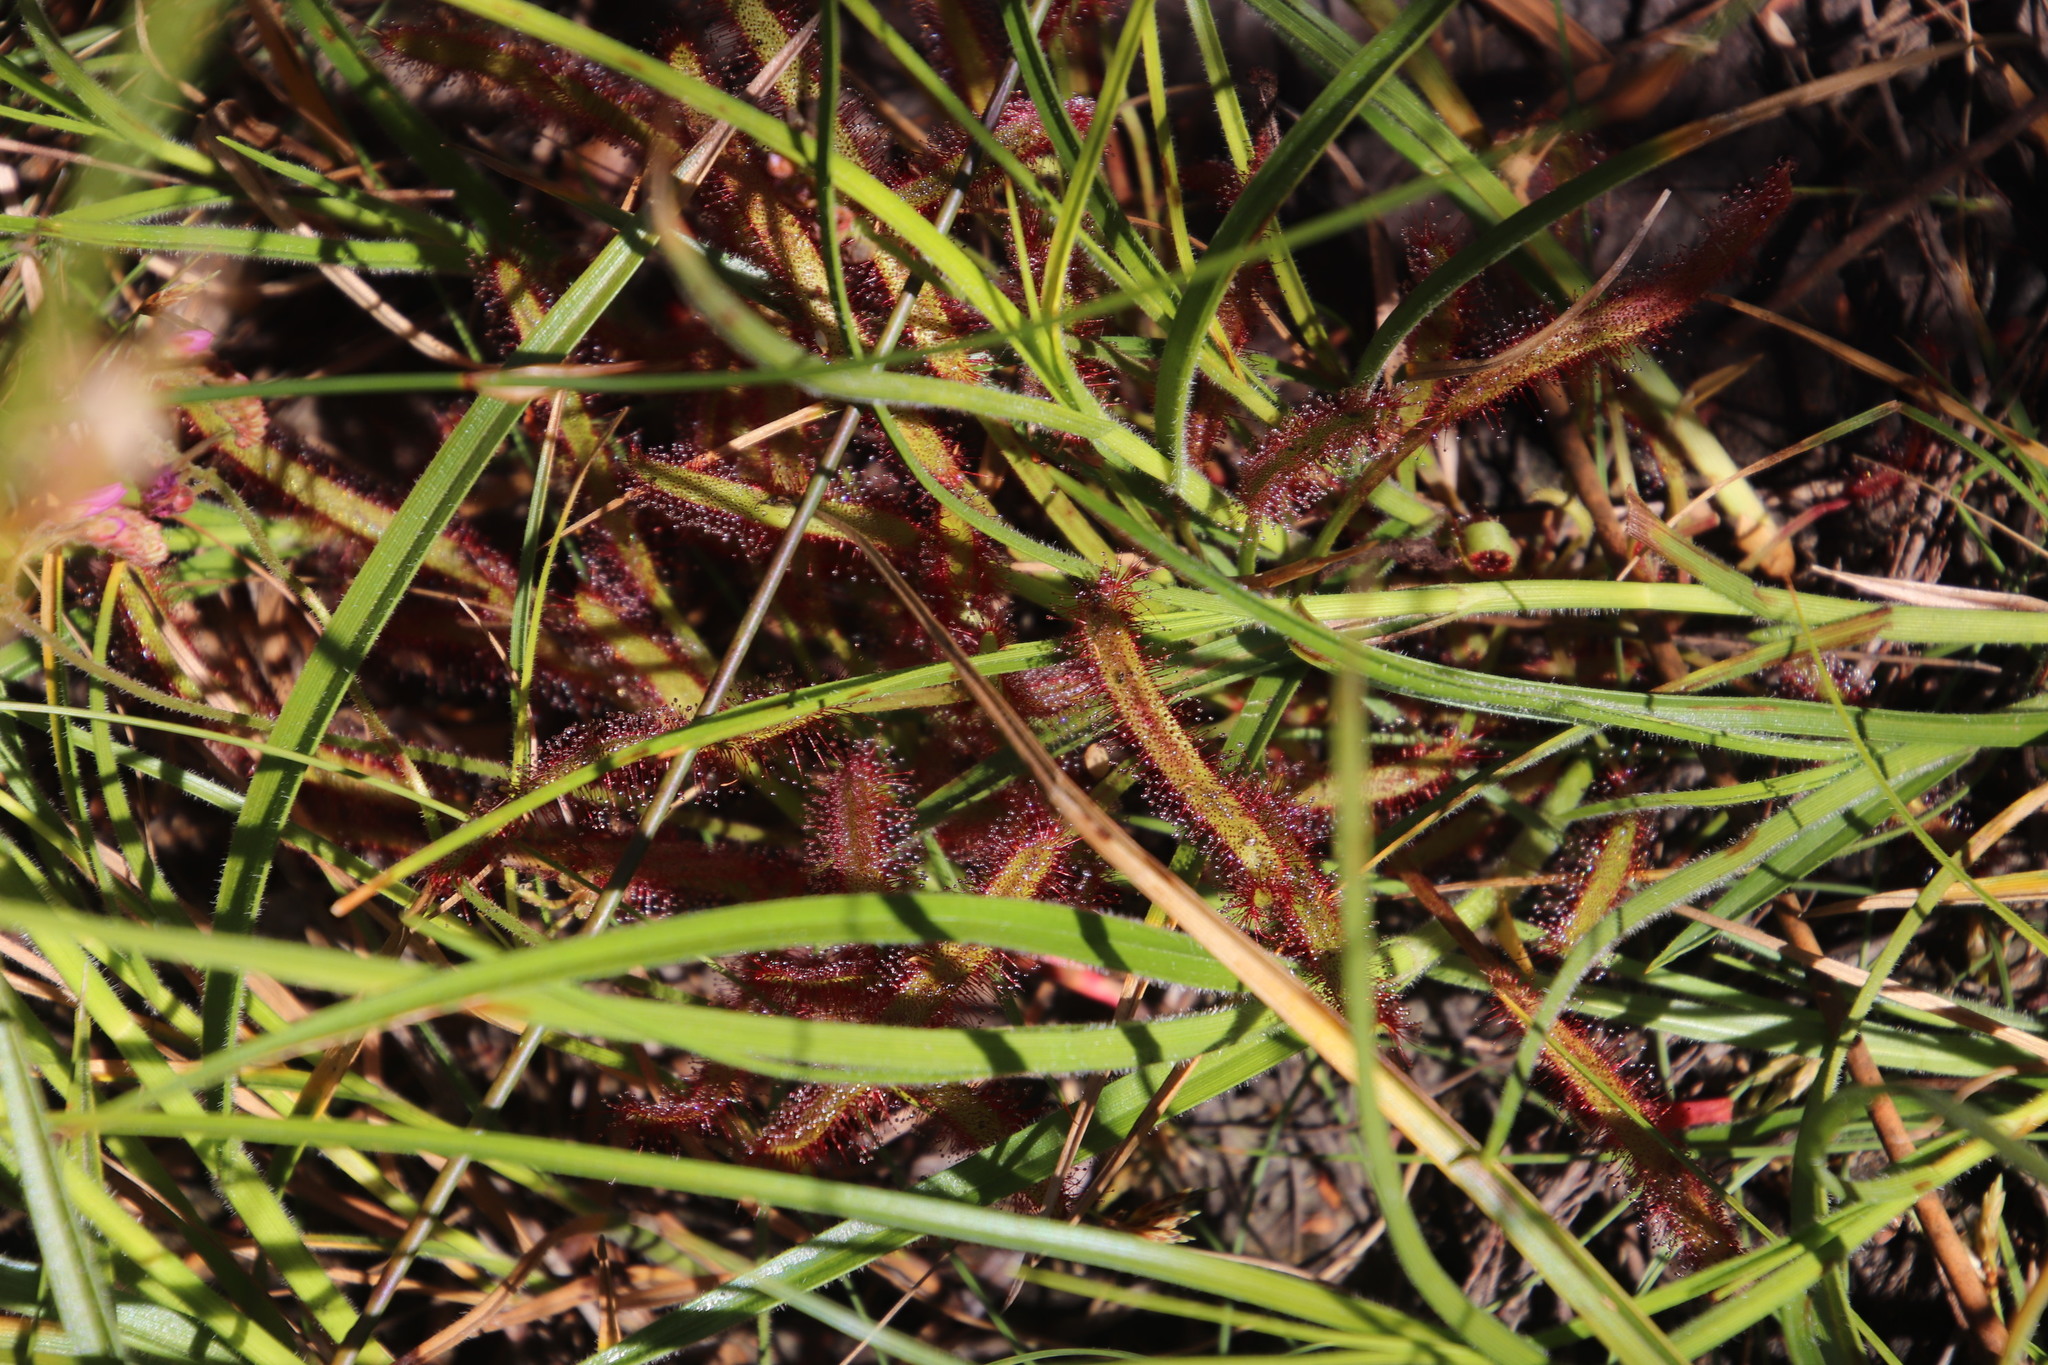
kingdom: Plantae
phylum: Tracheophyta
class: Magnoliopsida
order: Caryophyllales
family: Droseraceae
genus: Drosera
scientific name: Drosera capensis
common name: Cape sundew
